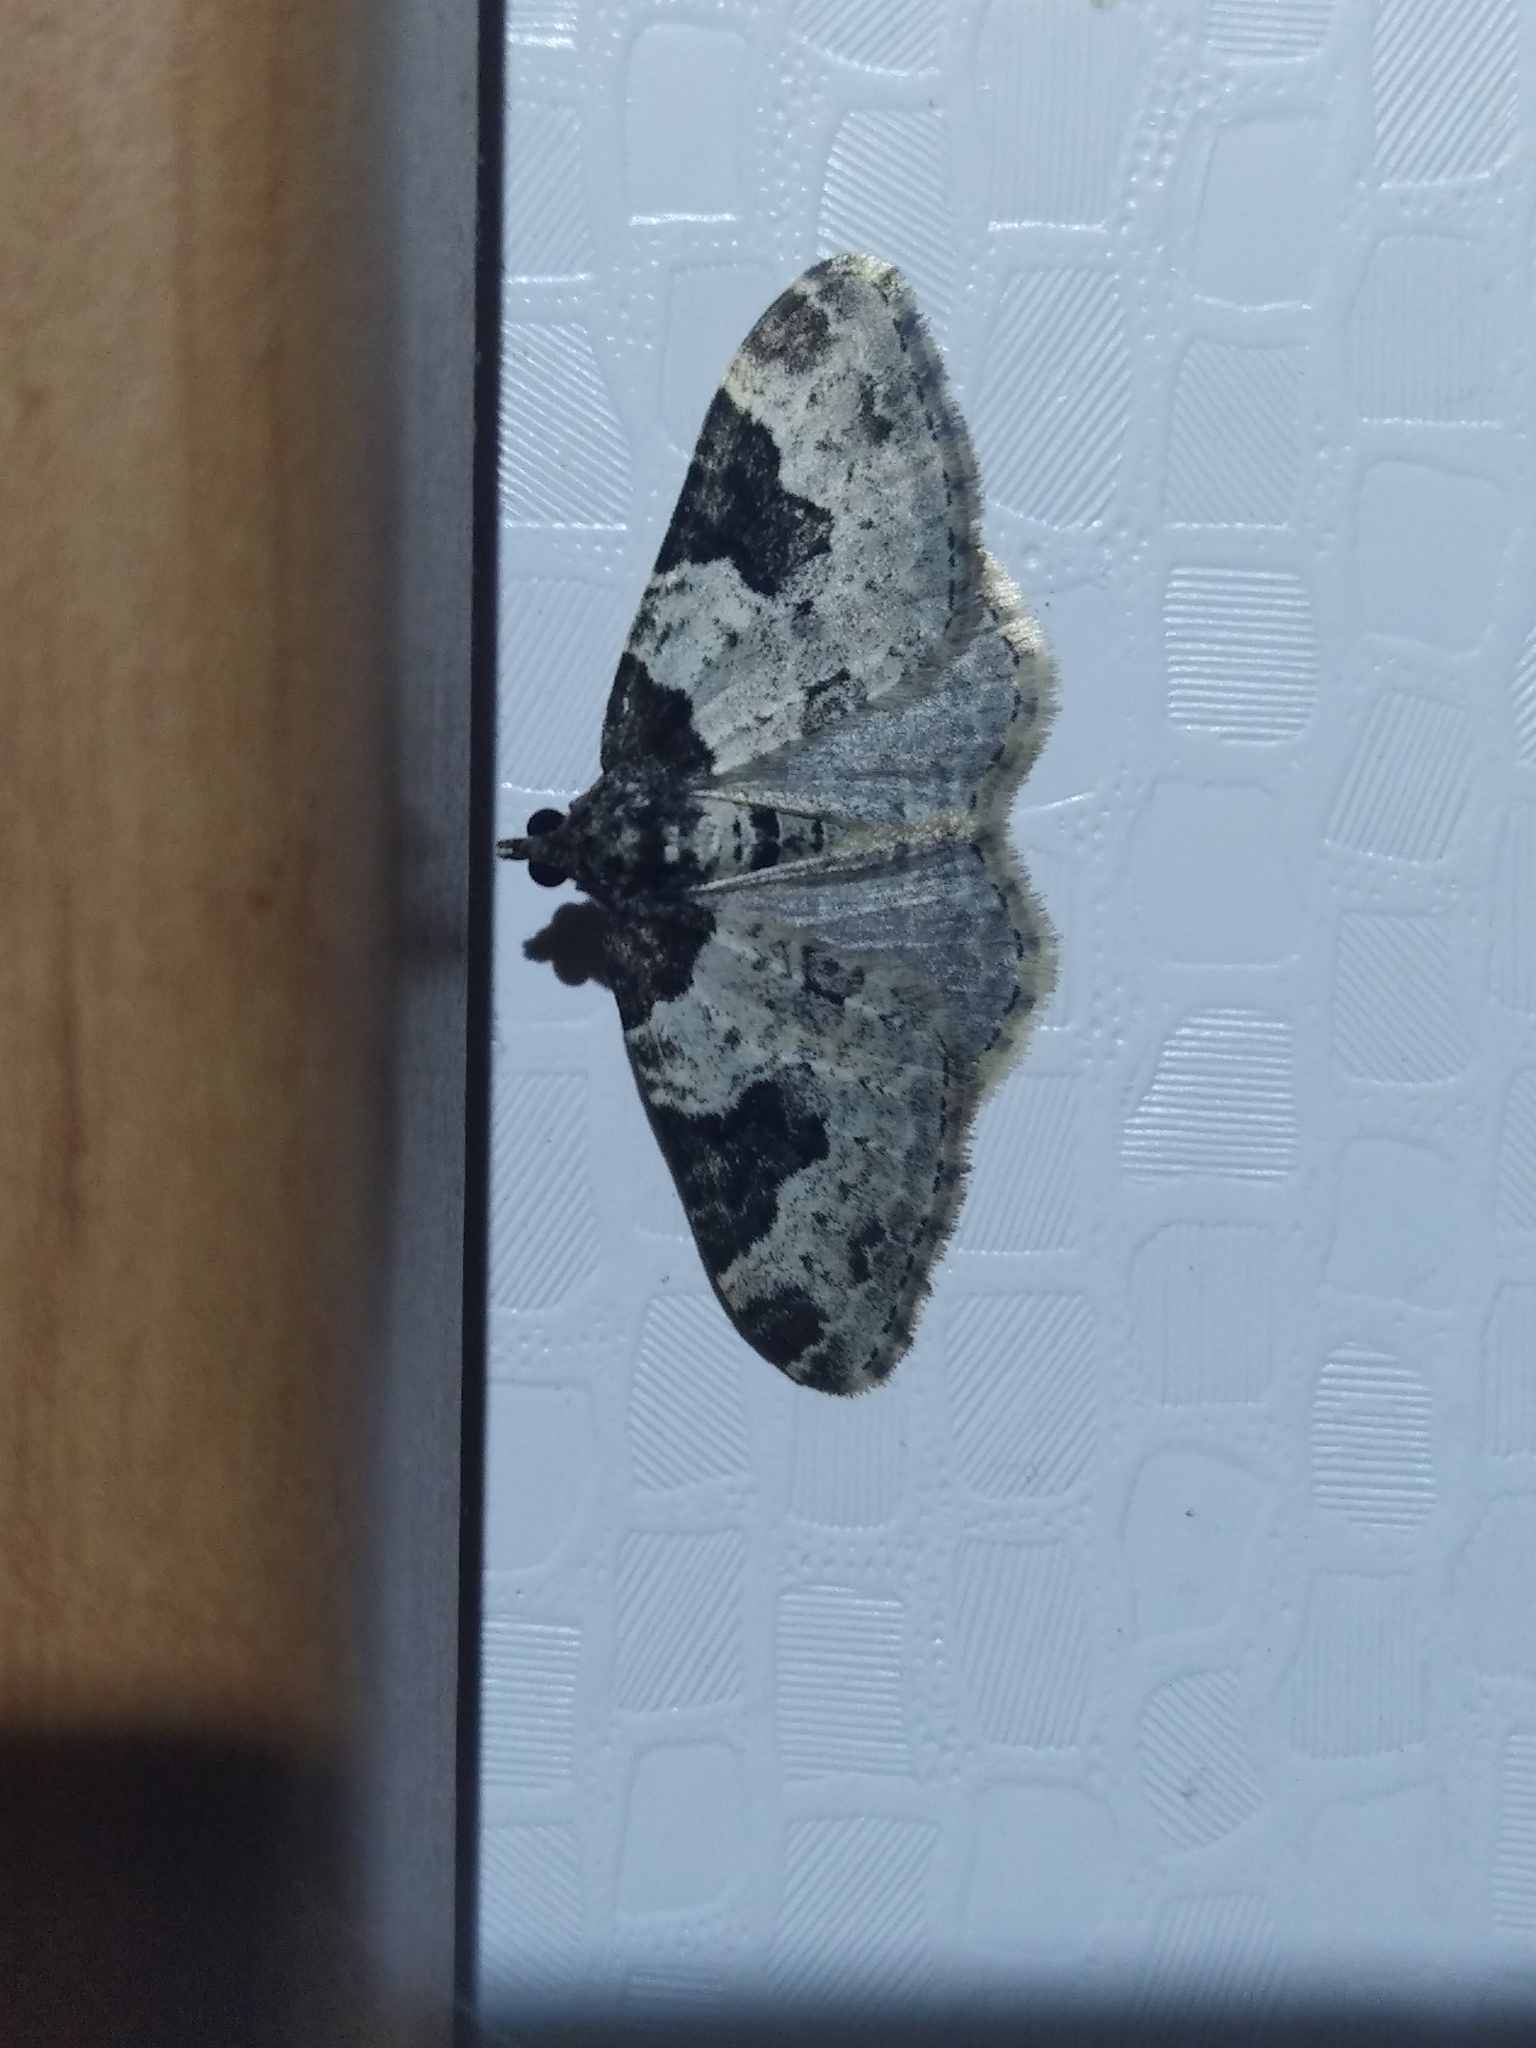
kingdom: Animalia
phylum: Arthropoda
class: Insecta
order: Lepidoptera
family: Geometridae
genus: Xanthorhoe
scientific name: Xanthorhoe fluctuata
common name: Garden carpet
